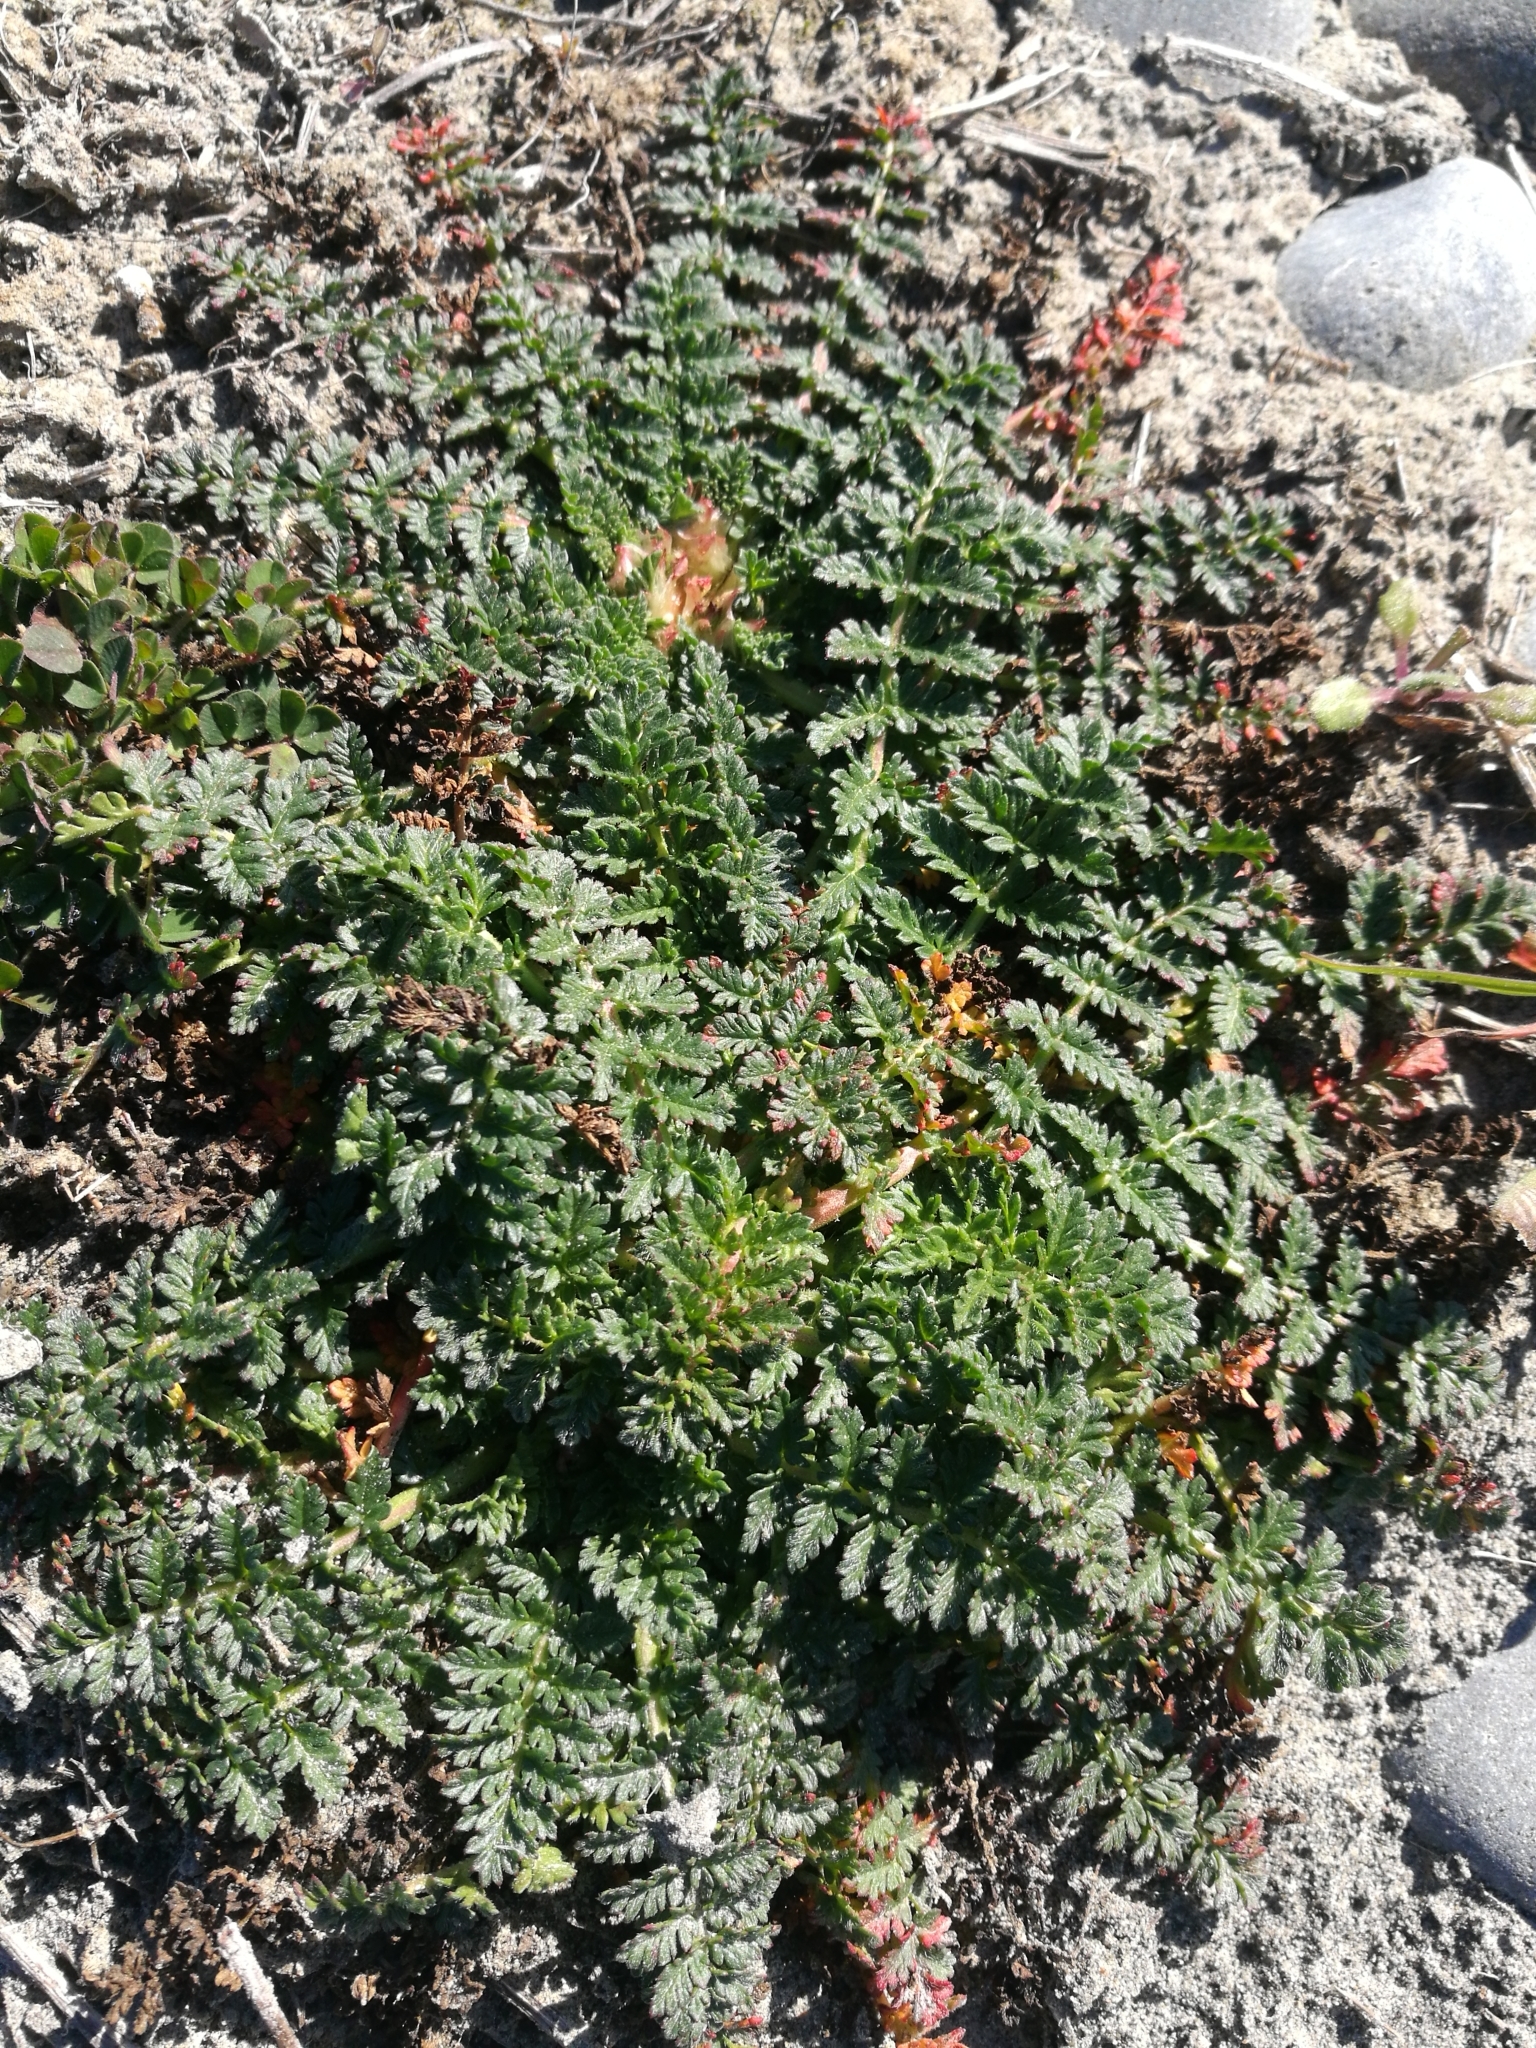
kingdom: Plantae
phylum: Tracheophyta
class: Magnoliopsida
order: Geraniales
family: Geraniaceae
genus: Erodium
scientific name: Erodium cicutarium
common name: Common stork's-bill
